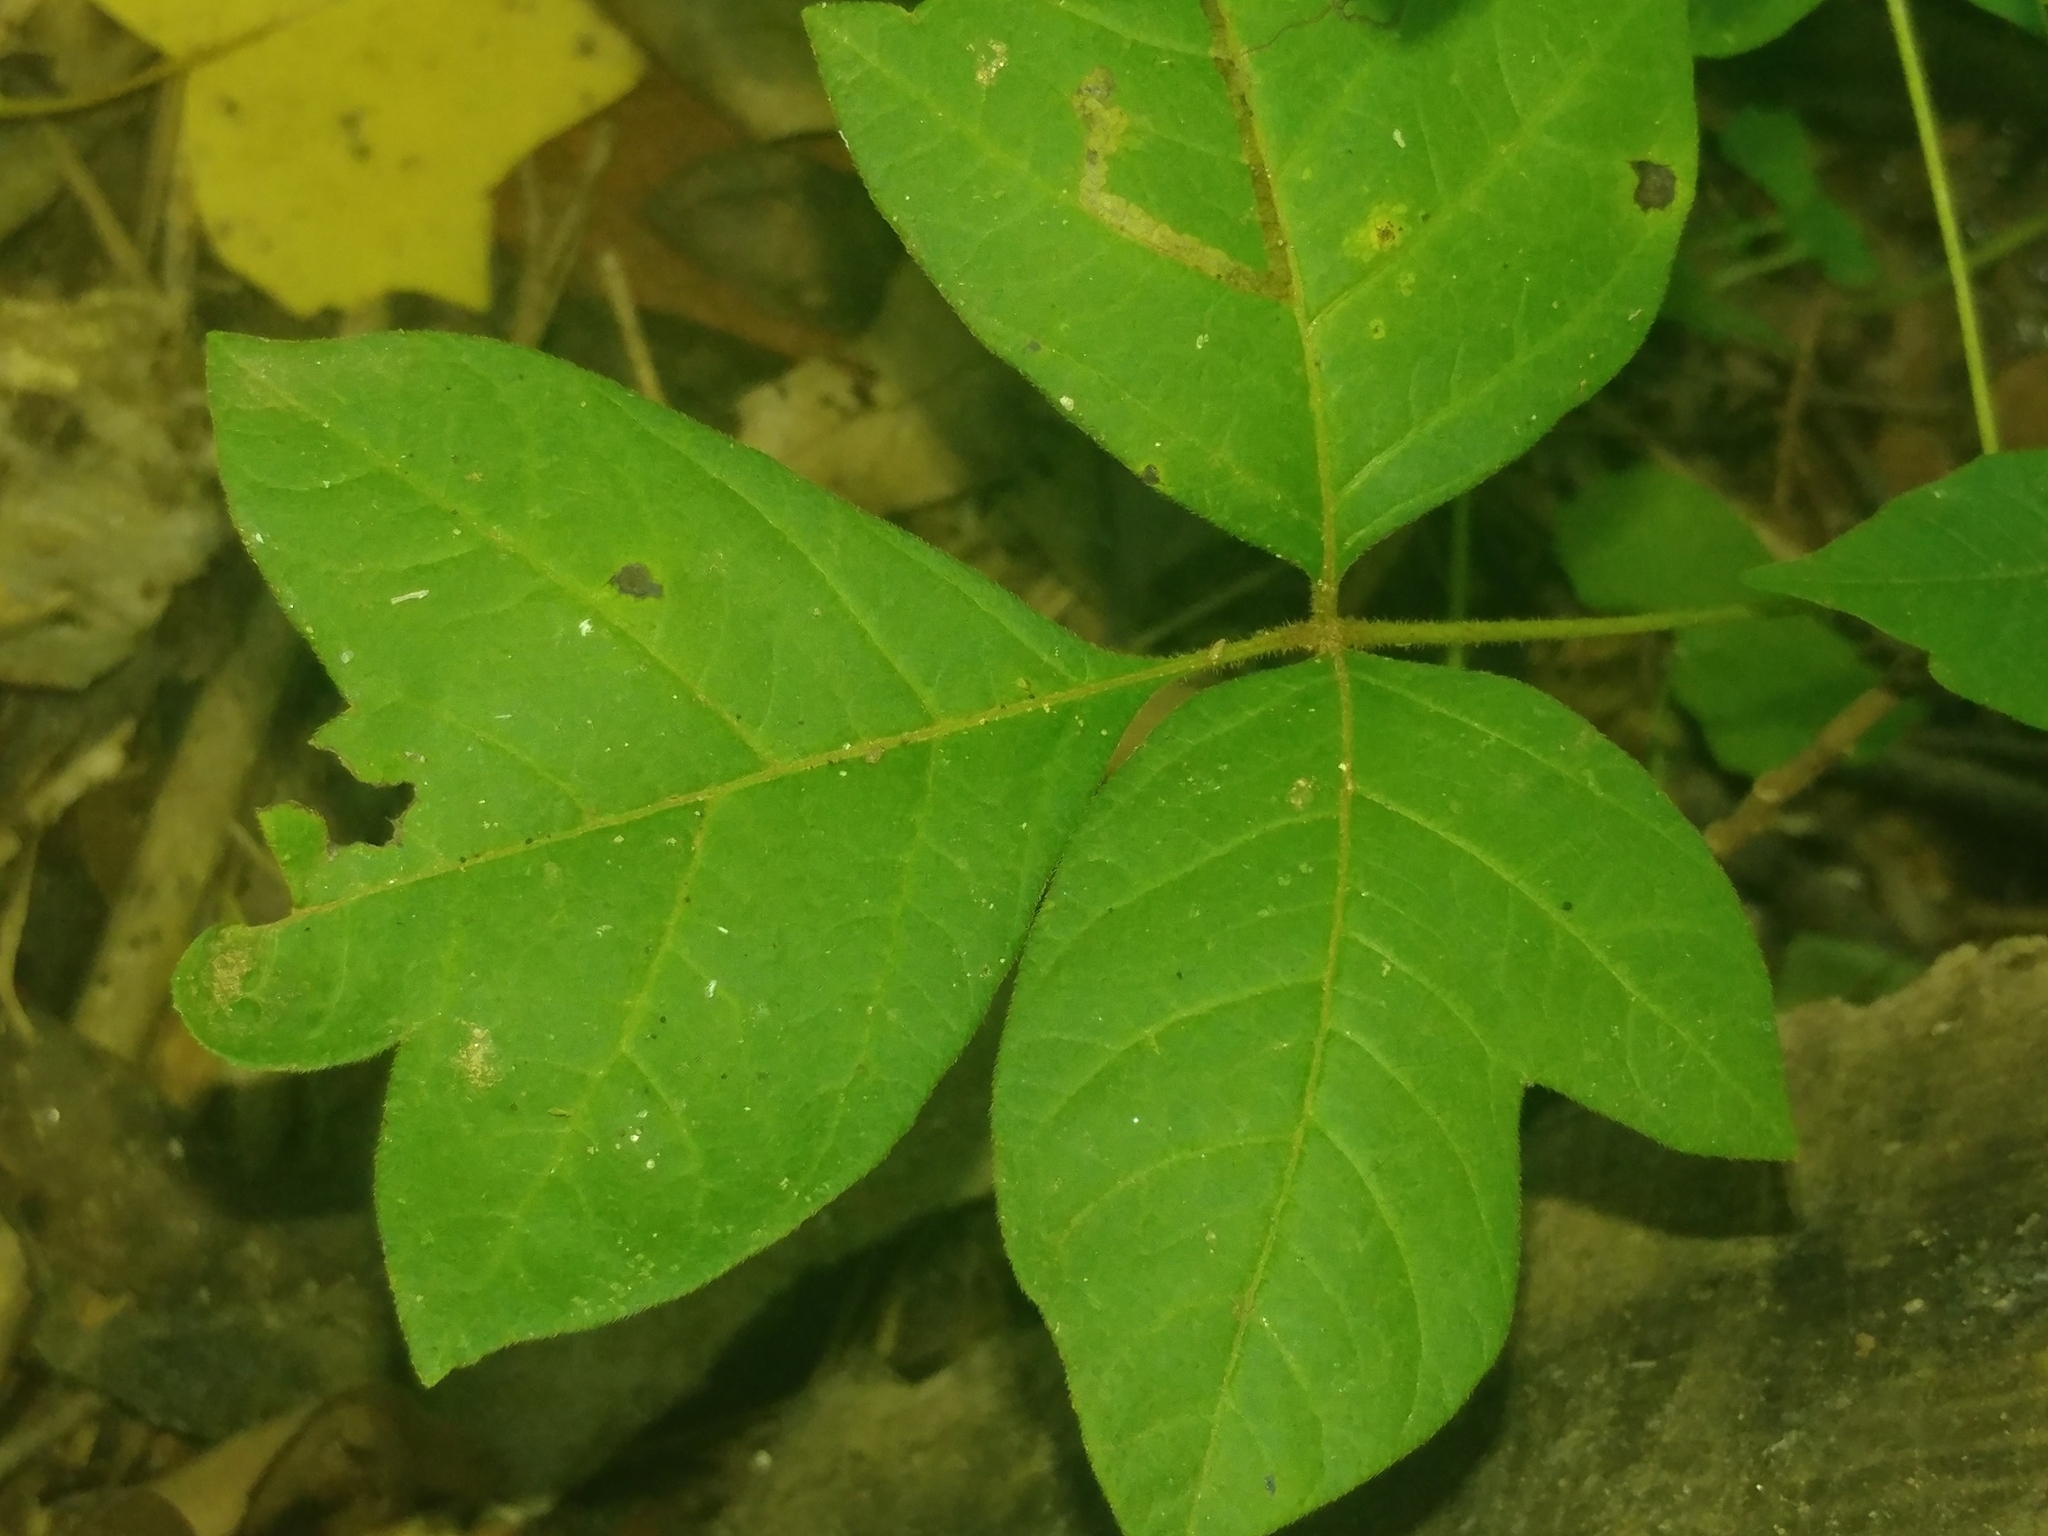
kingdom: Plantae
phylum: Tracheophyta
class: Magnoliopsida
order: Sapindales
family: Anacardiaceae
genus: Toxicodendron
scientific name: Toxicodendron radicans
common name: Poison ivy
